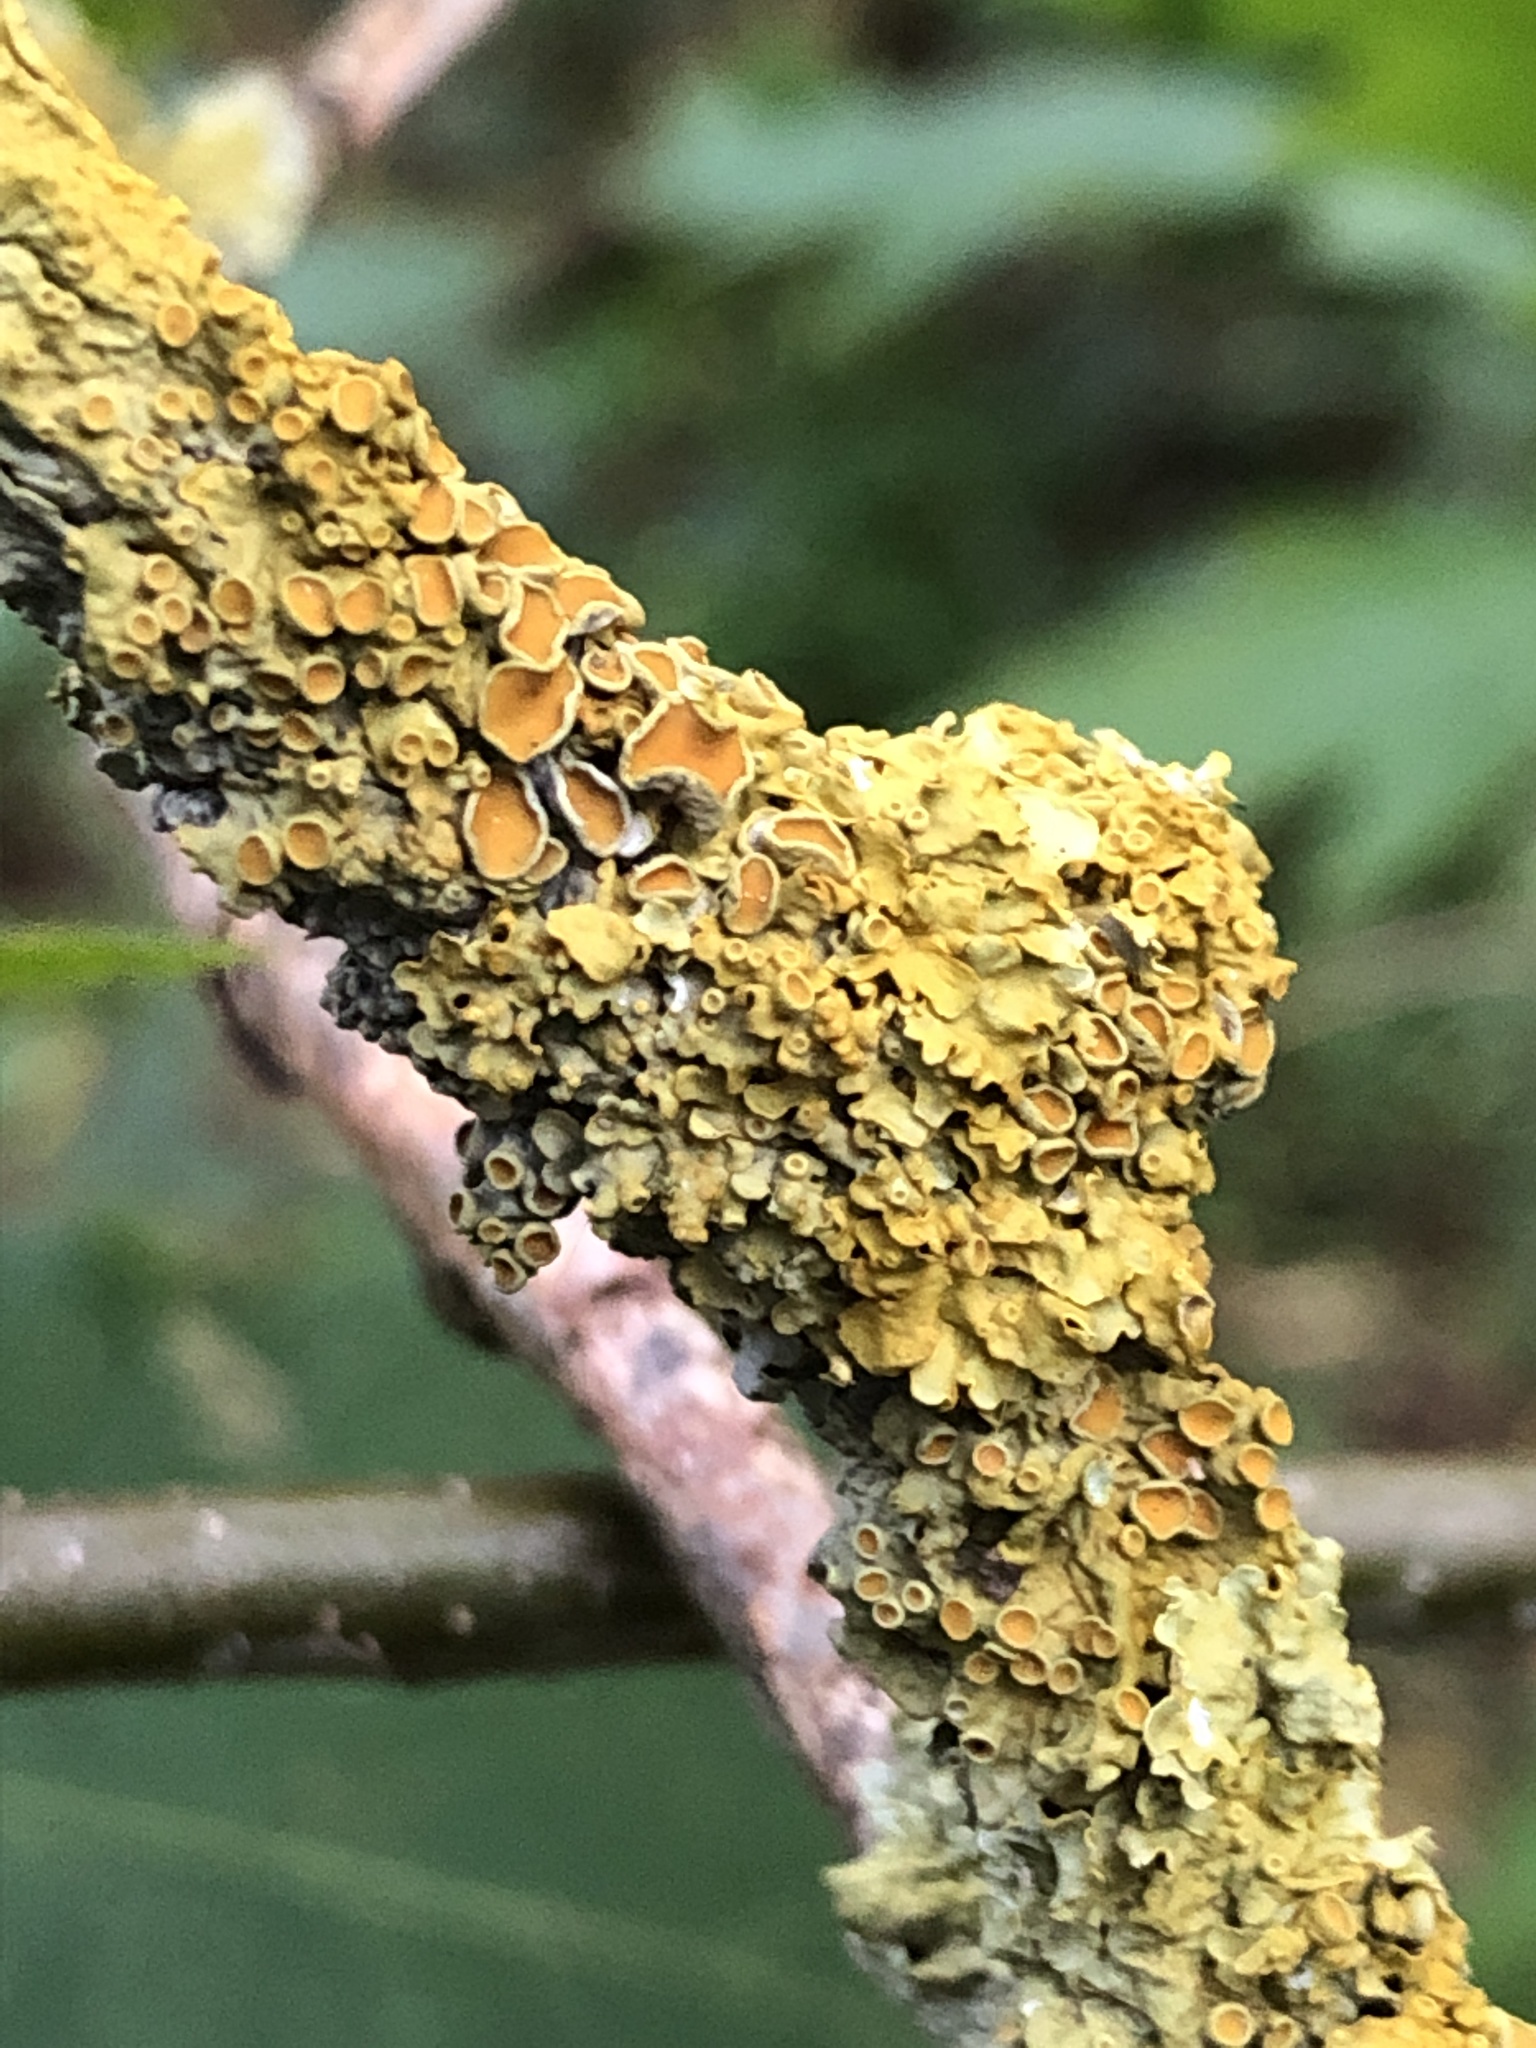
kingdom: Fungi
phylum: Ascomycota
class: Lecanoromycetes
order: Teloschistales
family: Teloschistaceae
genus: Xanthoria
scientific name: Xanthoria parietina
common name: Common orange lichen
